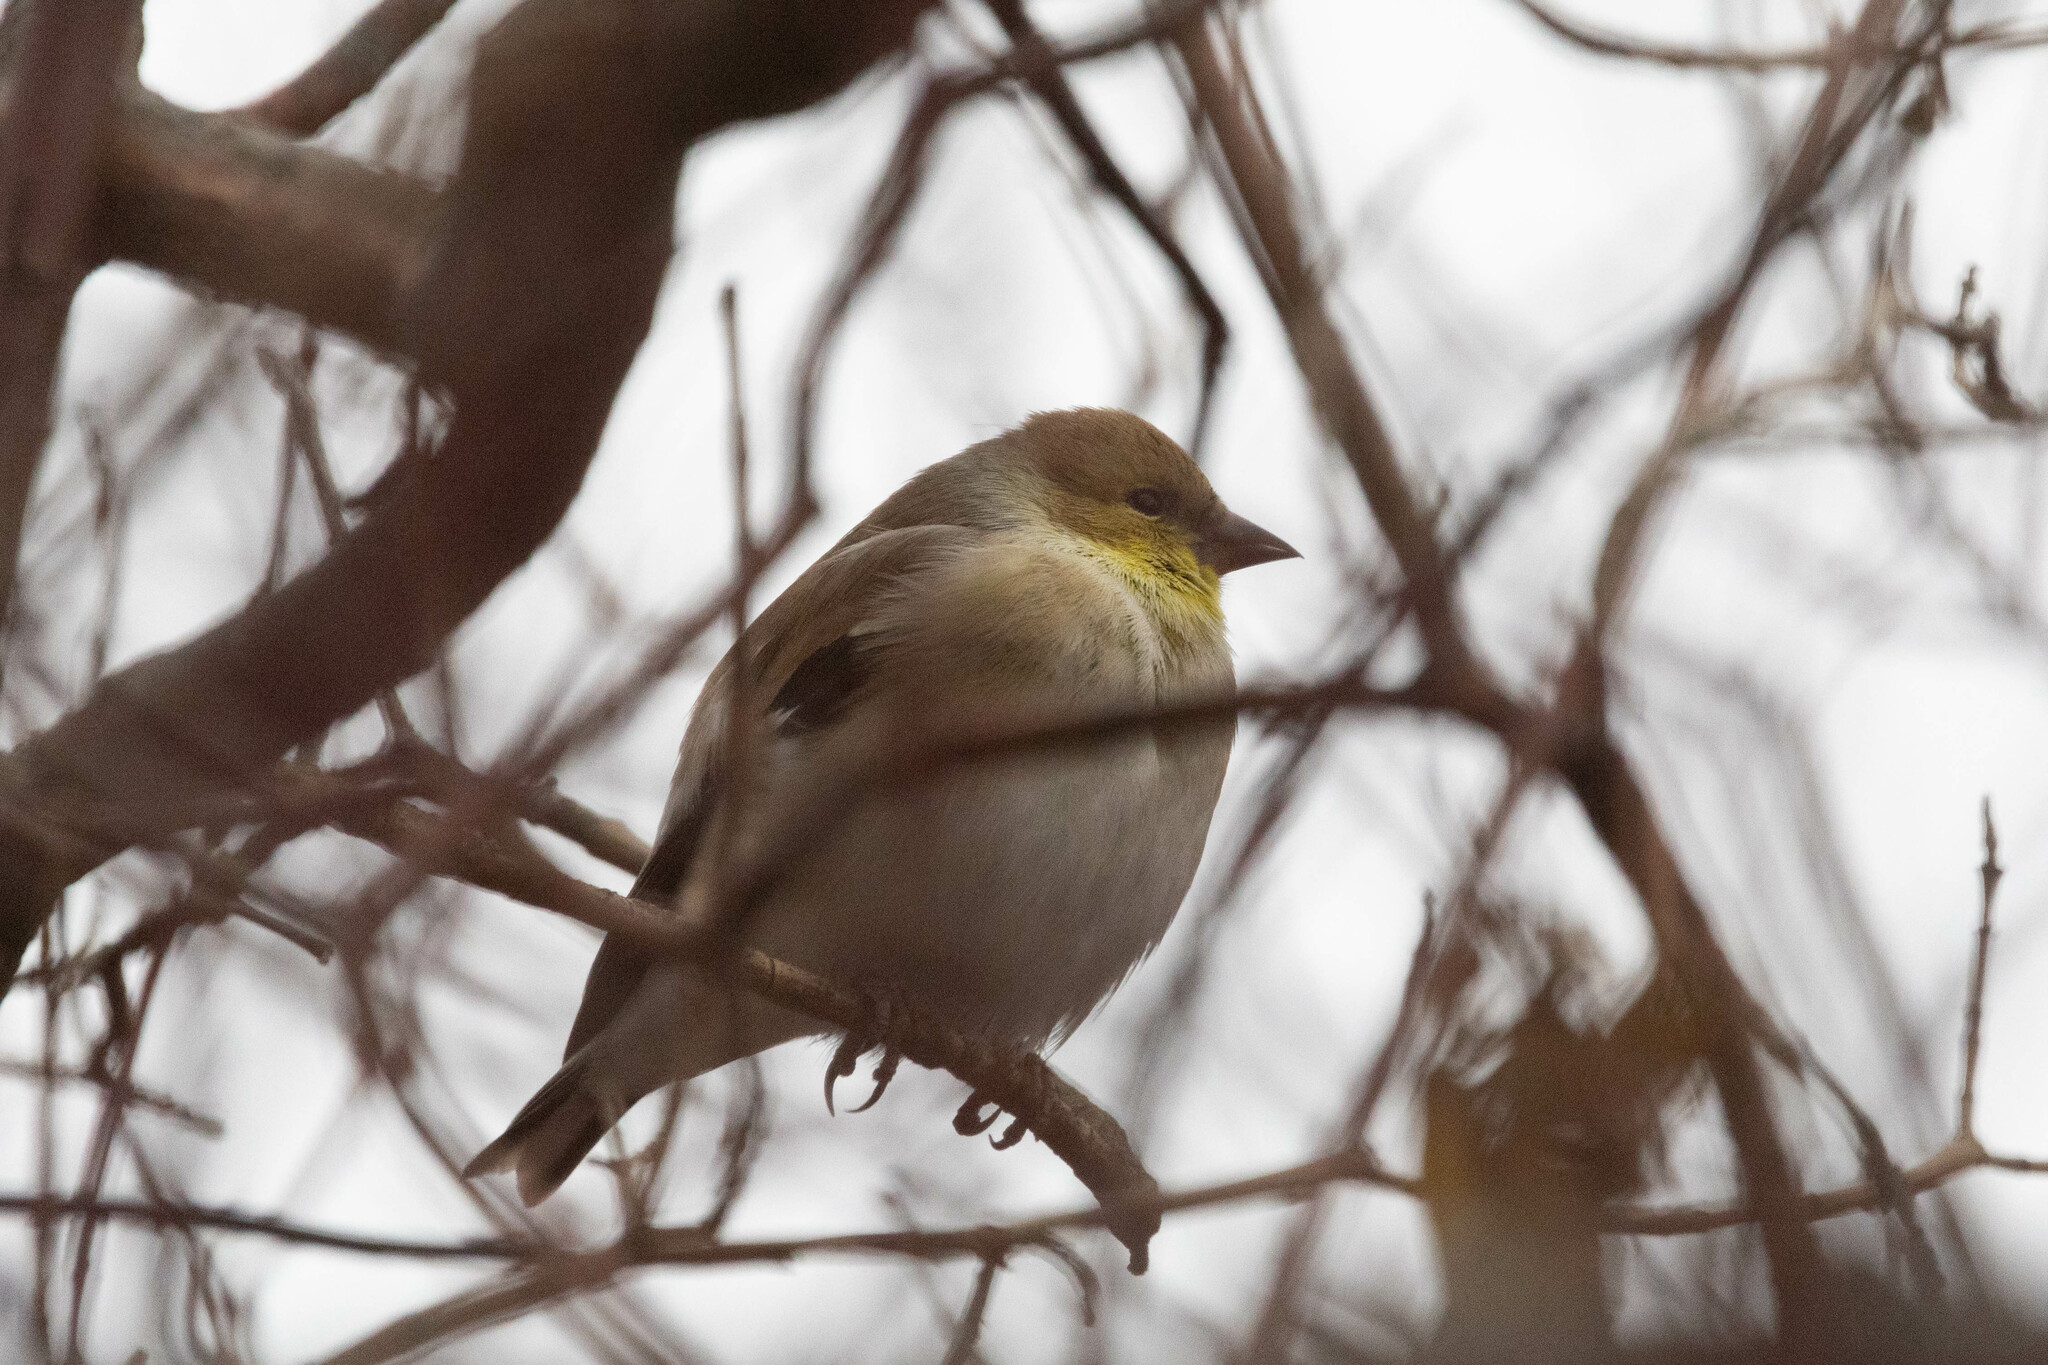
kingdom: Animalia
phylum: Chordata
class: Aves
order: Passeriformes
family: Fringillidae
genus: Spinus
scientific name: Spinus tristis
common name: American goldfinch
